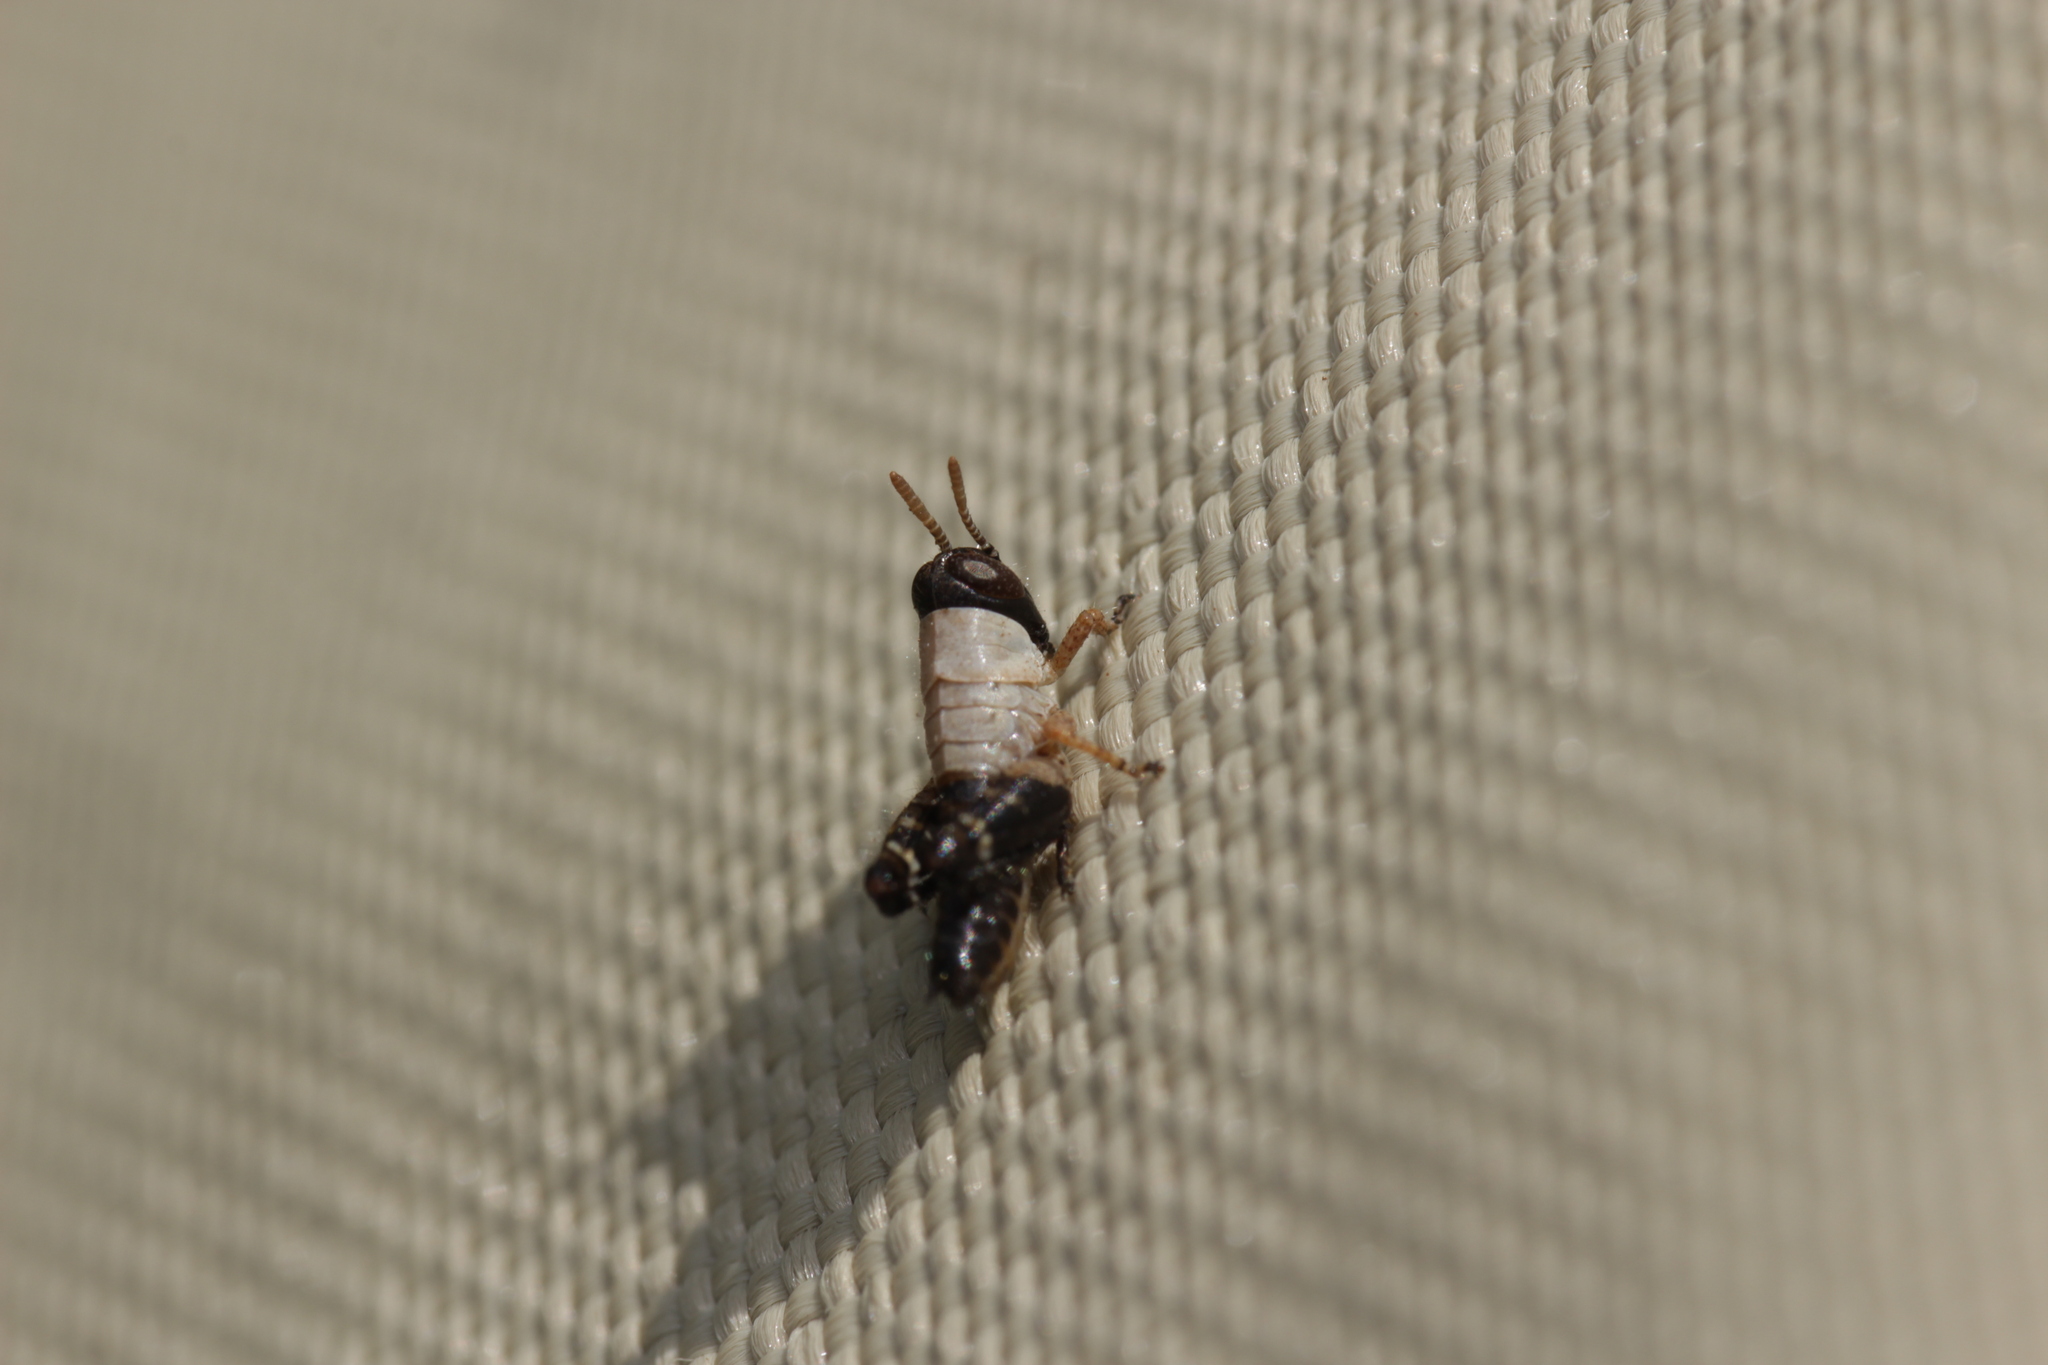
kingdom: Animalia
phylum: Arthropoda
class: Insecta
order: Orthoptera
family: Acrididae
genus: Calliptamus
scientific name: Calliptamus italicus
